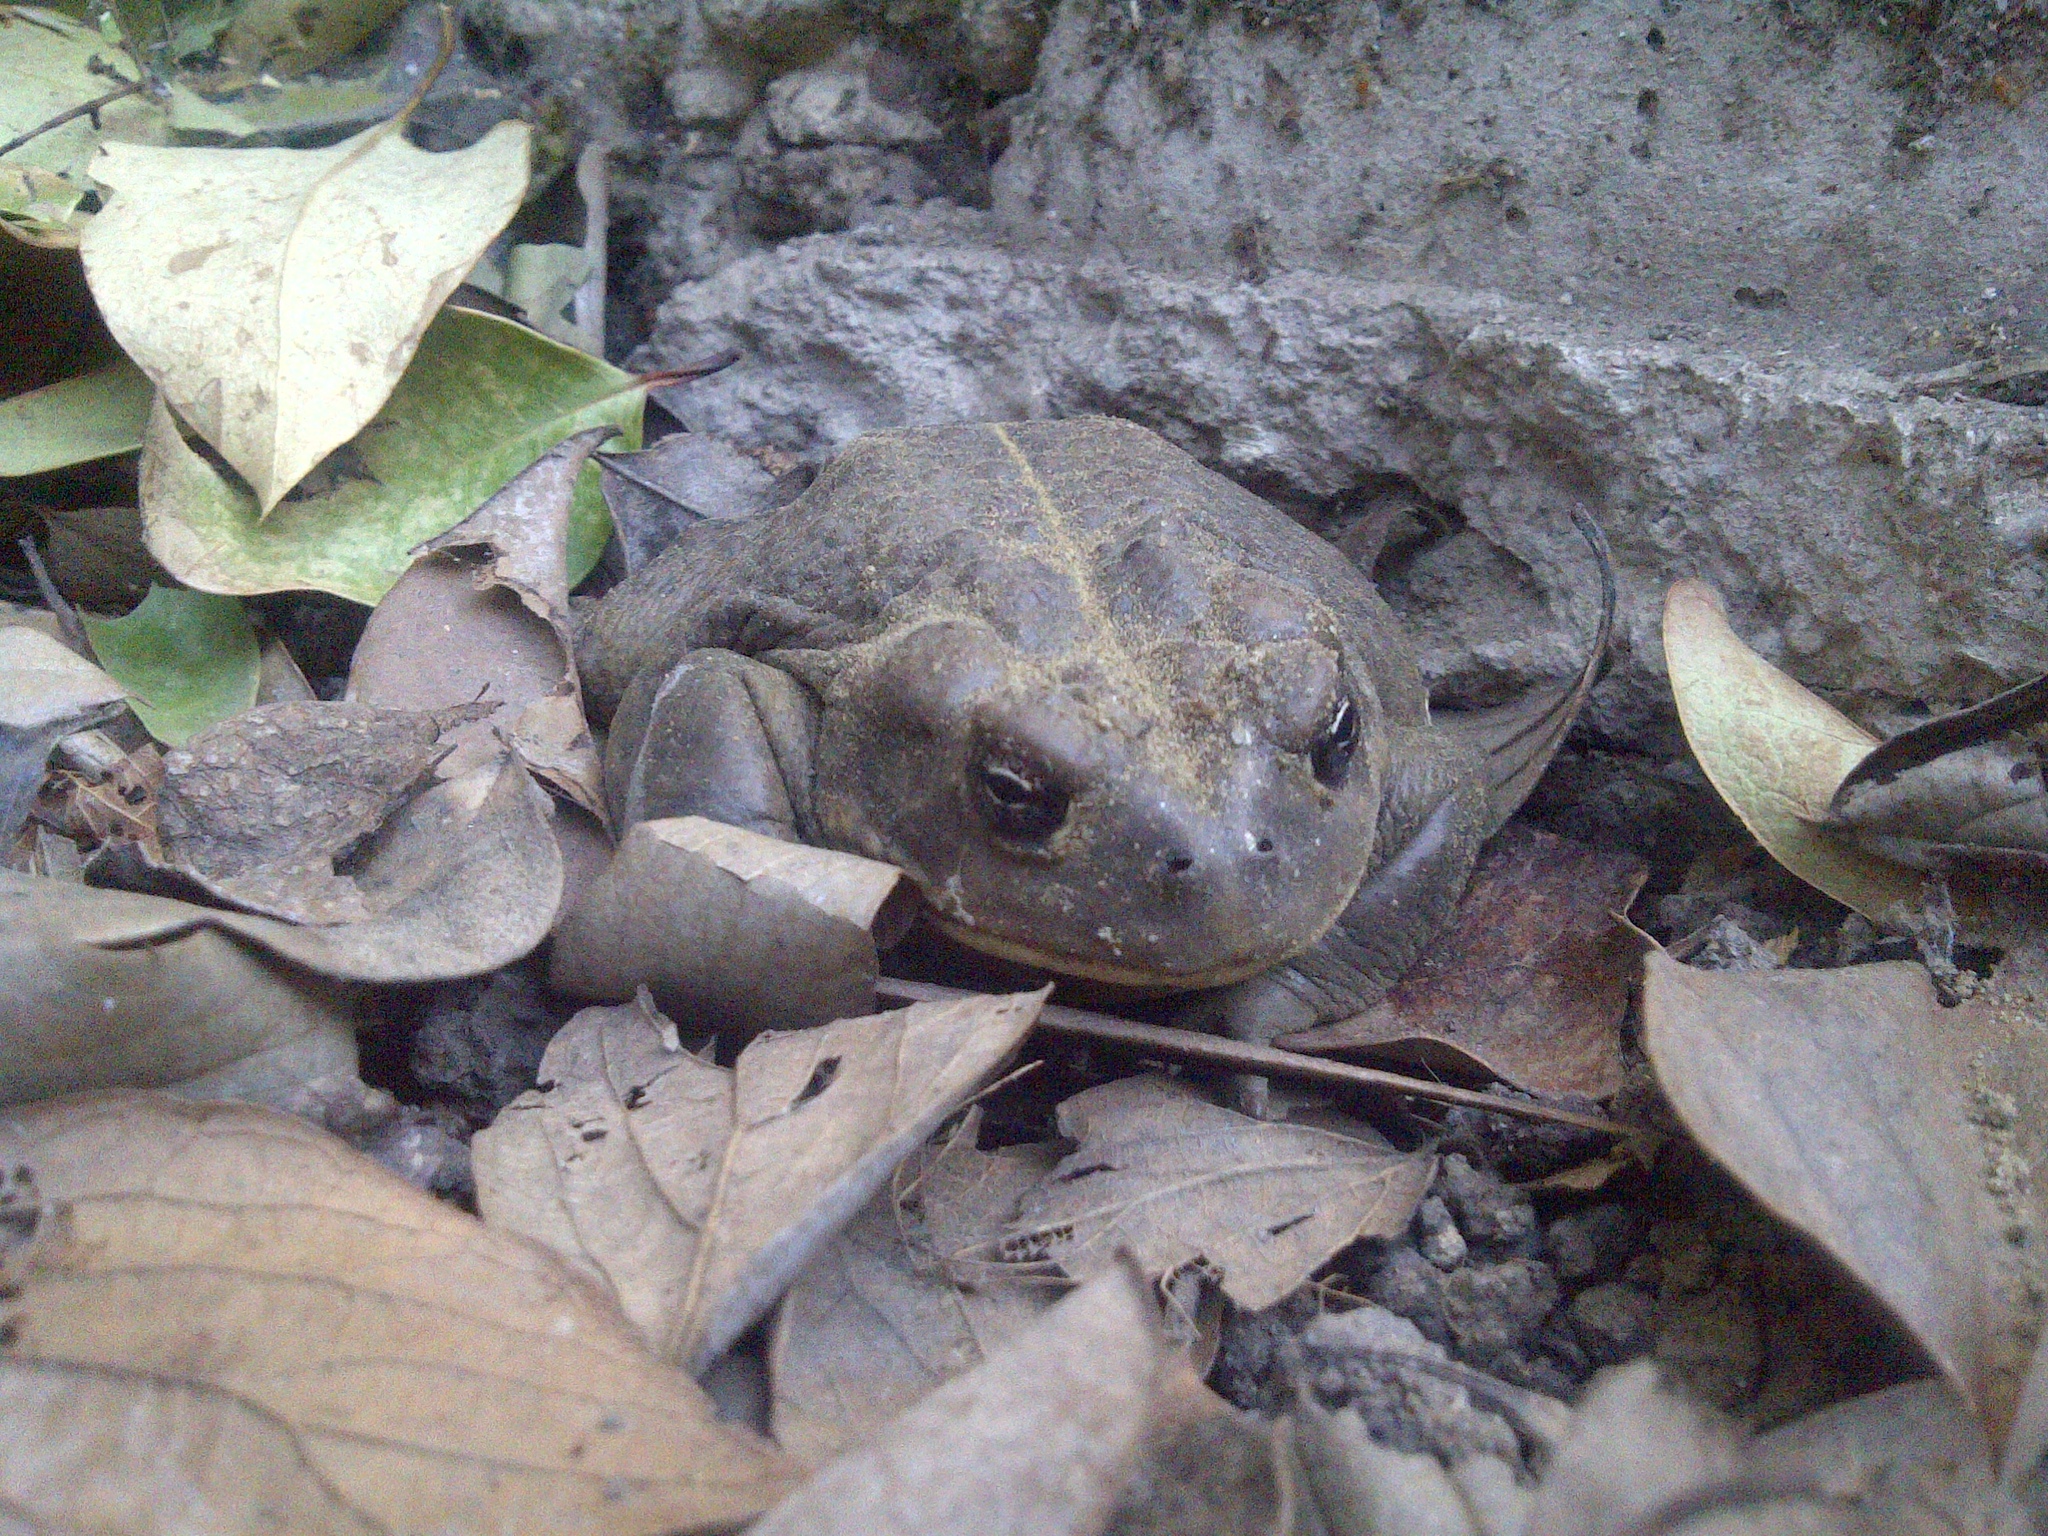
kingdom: Animalia
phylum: Chordata
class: Amphibia
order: Anura
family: Bufonidae
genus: Anaxyrus
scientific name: Anaxyrus boreas
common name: Western toad
